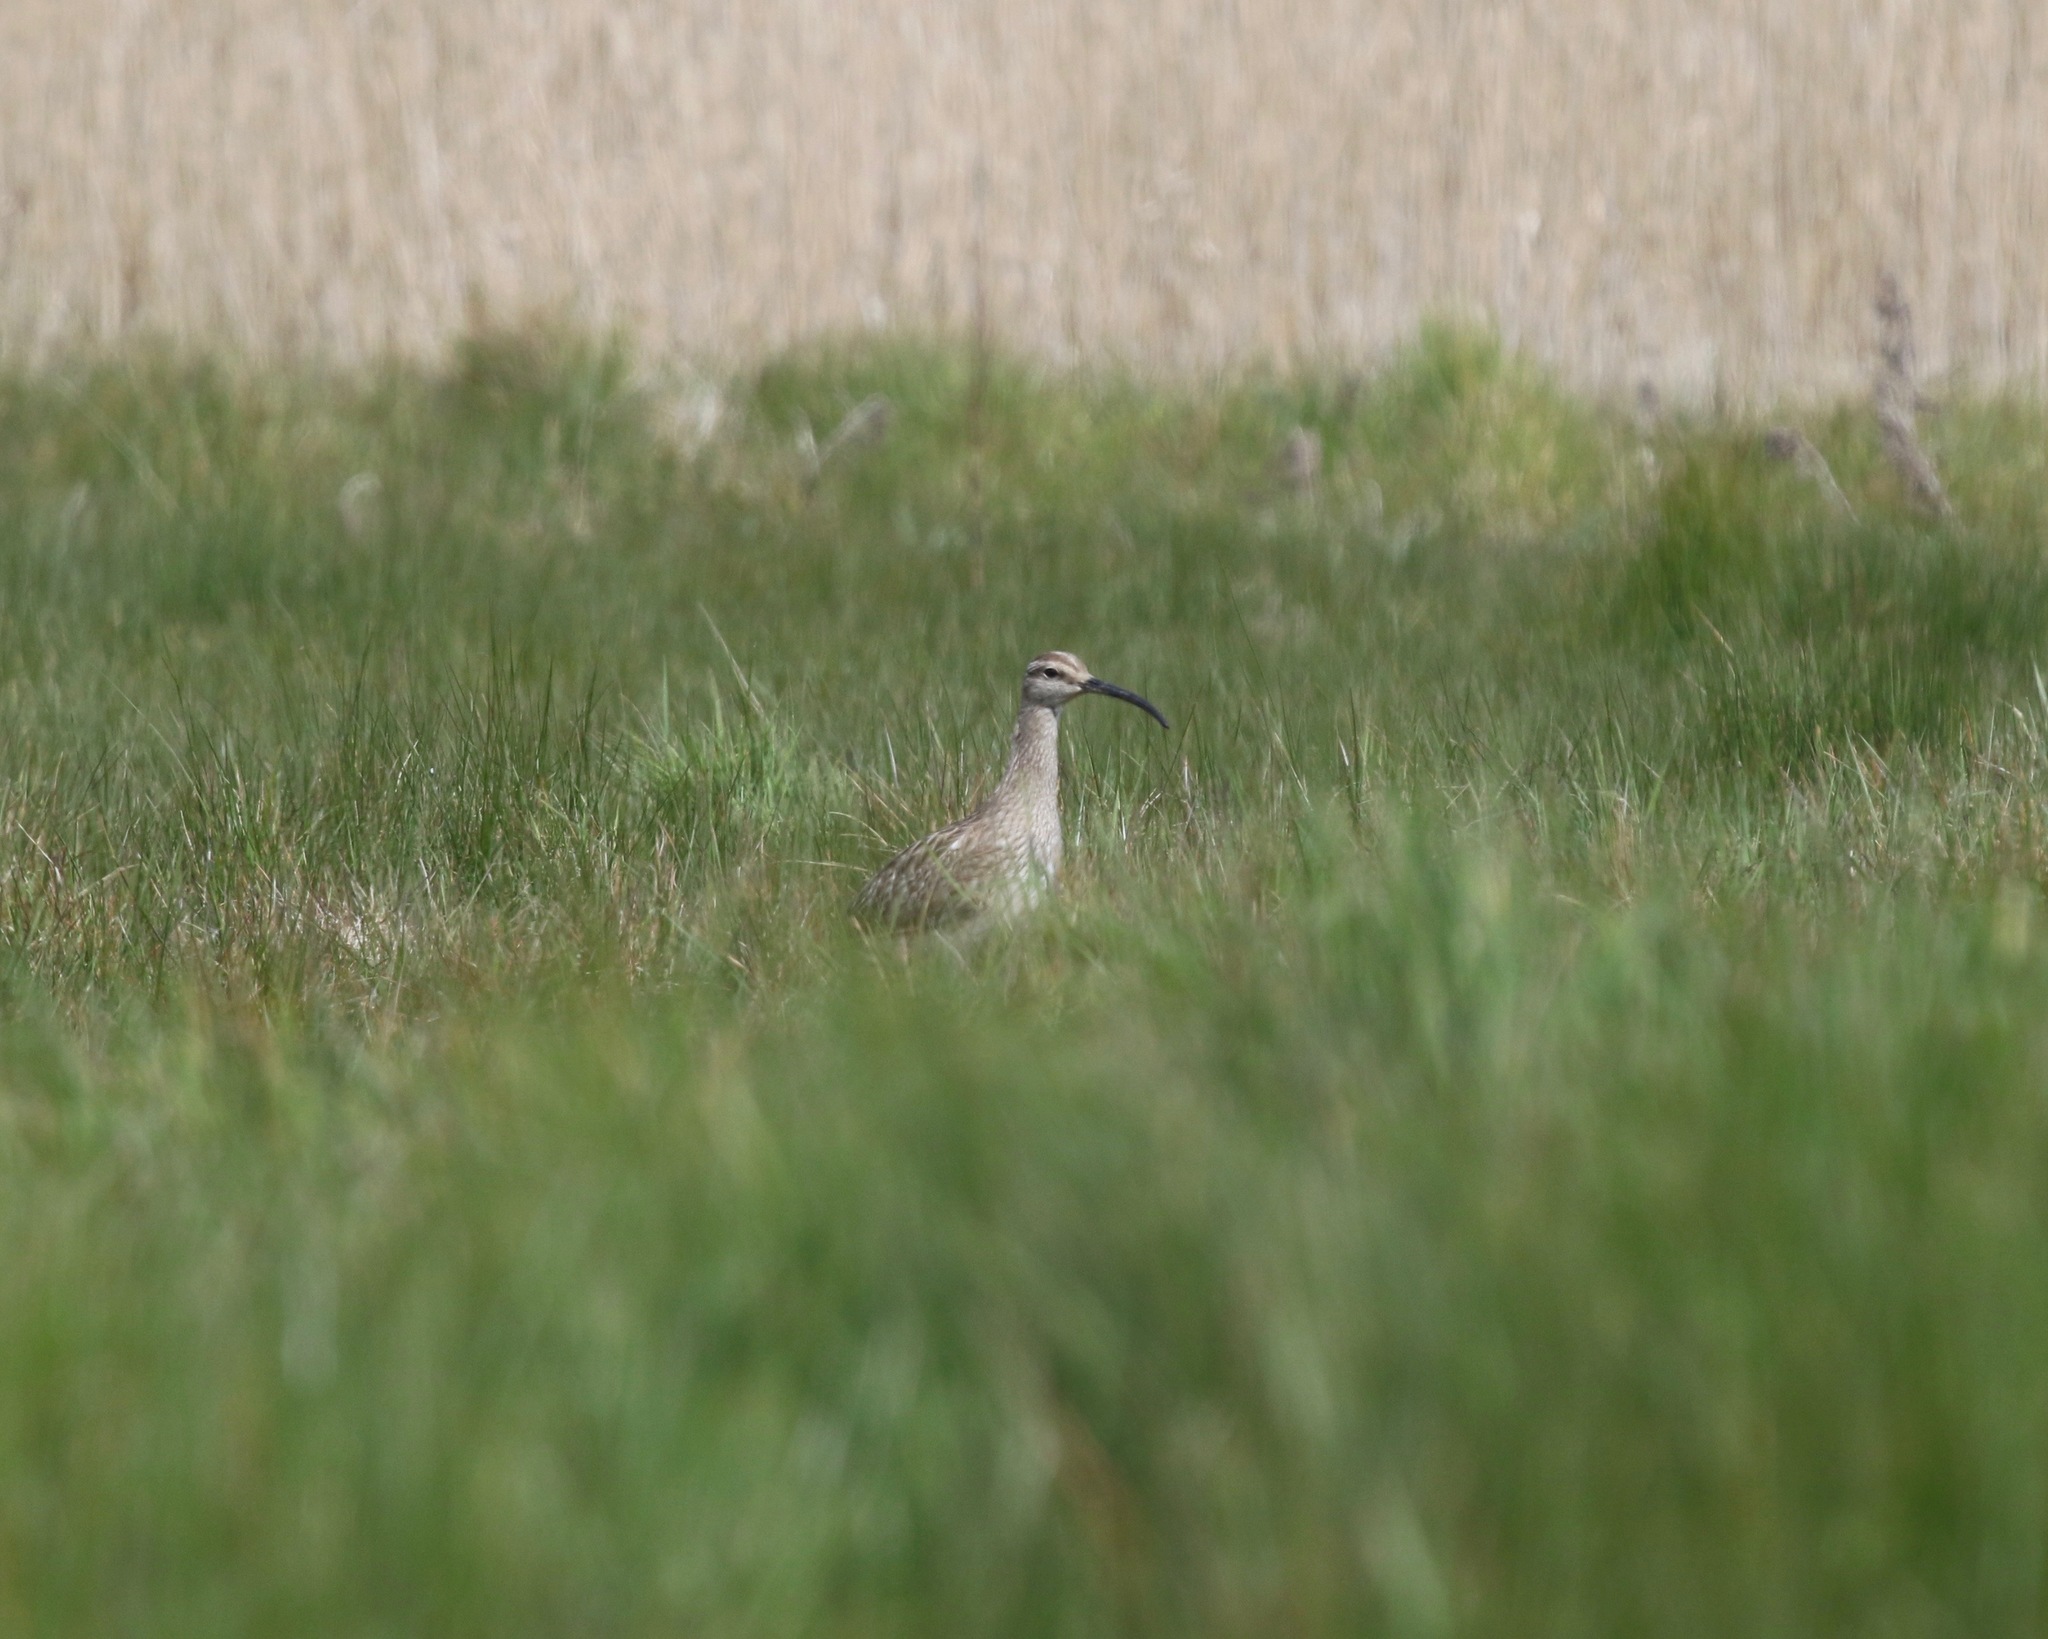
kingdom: Animalia
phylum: Chordata
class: Aves
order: Charadriiformes
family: Scolopacidae
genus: Numenius
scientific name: Numenius phaeopus
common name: Whimbrel
